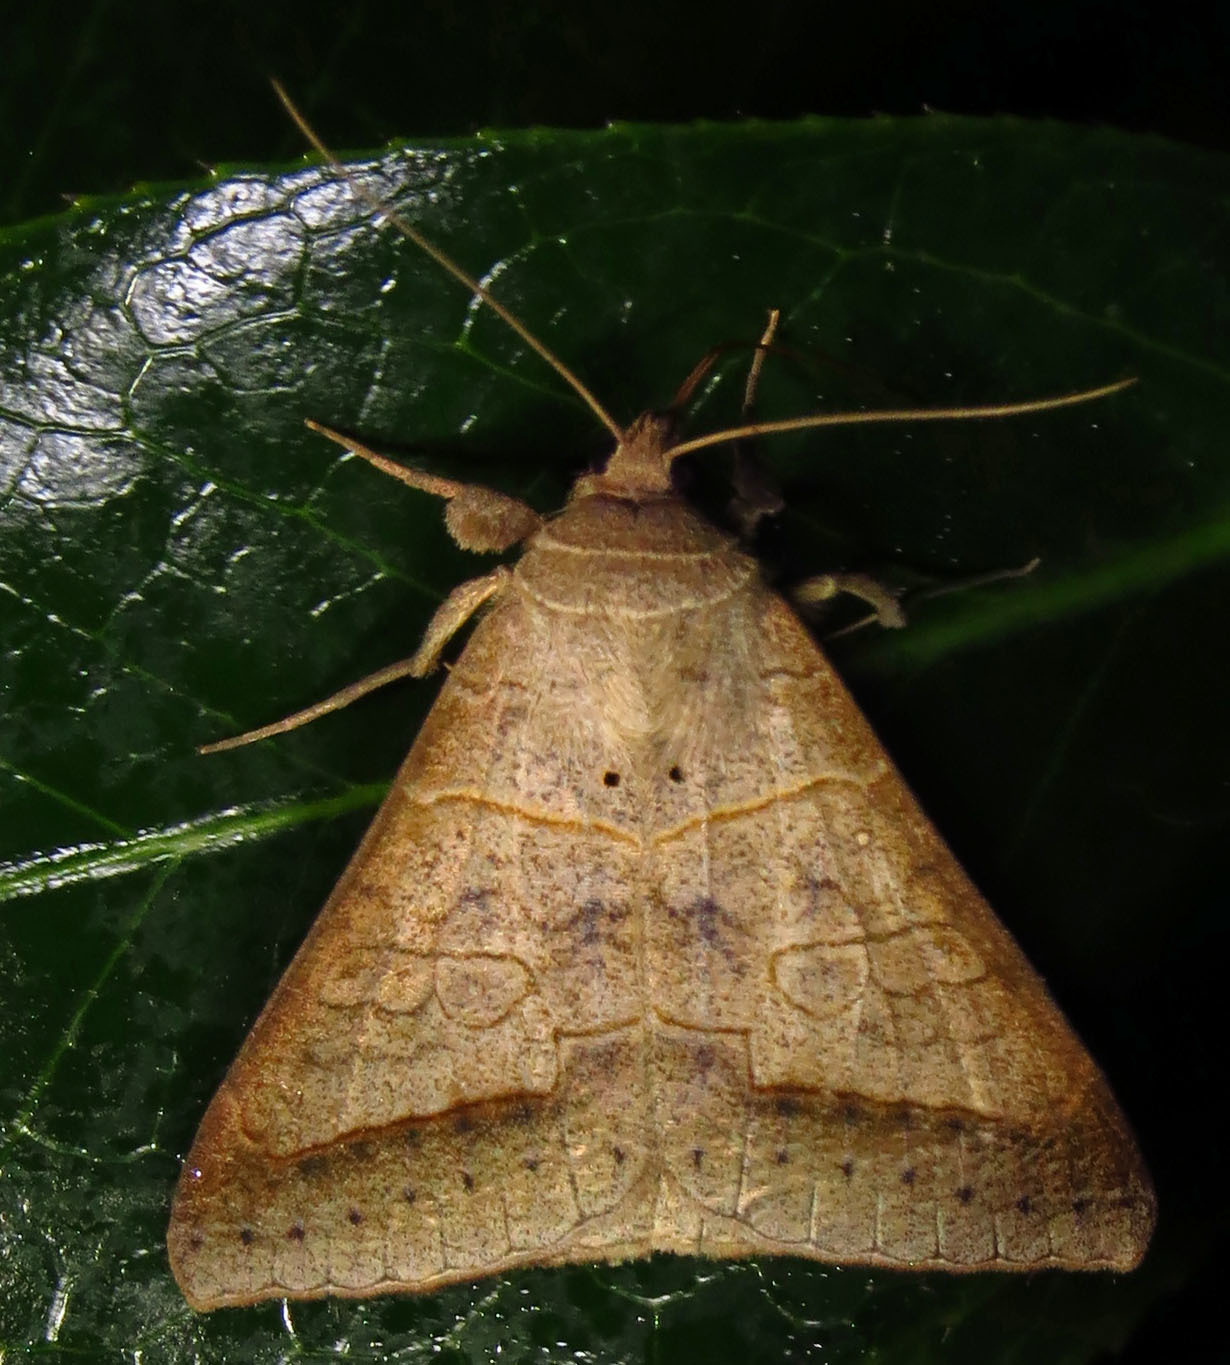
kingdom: Animalia
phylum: Arthropoda
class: Insecta
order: Lepidoptera
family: Erebidae
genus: Mocis
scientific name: Mocis marcida
